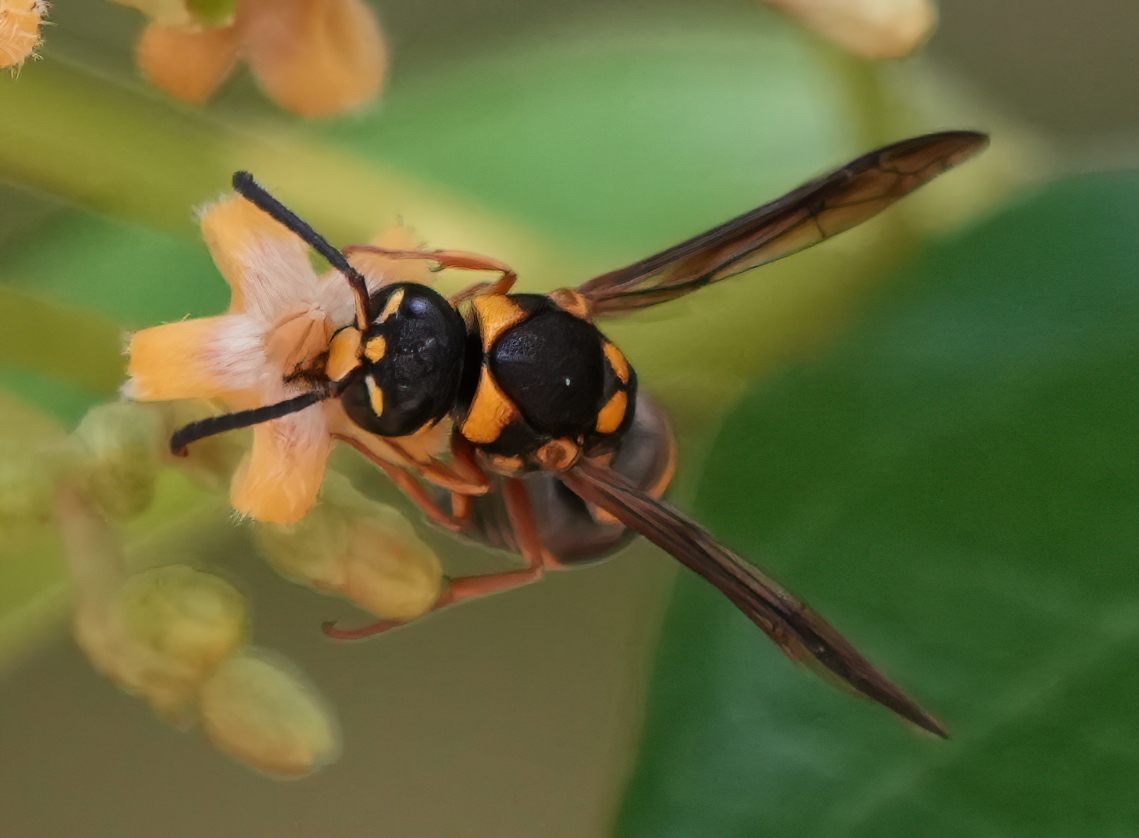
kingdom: Animalia
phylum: Arthropoda
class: Insecta
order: Hymenoptera
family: Eumenidae
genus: Euodynerus
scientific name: Euodynerus aspra
